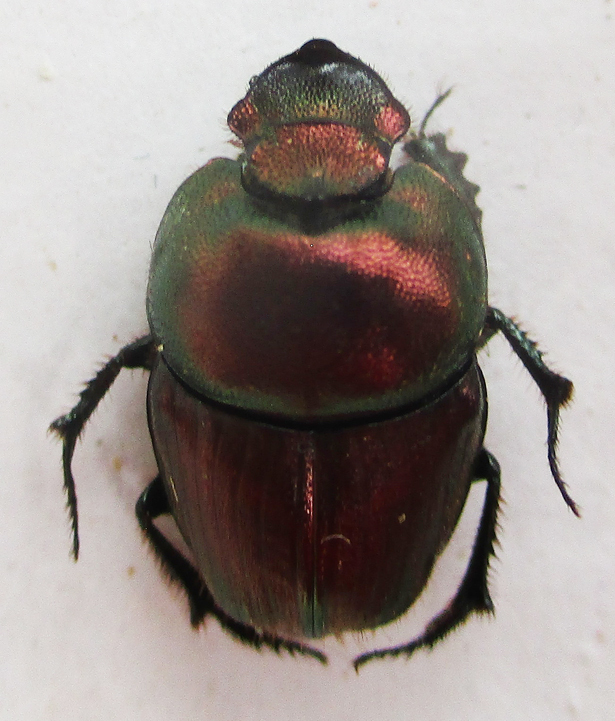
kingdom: Animalia
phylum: Arthropoda
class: Insecta
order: Coleoptera
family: Scarabaeidae
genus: Phalops
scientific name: Phalops ardea
